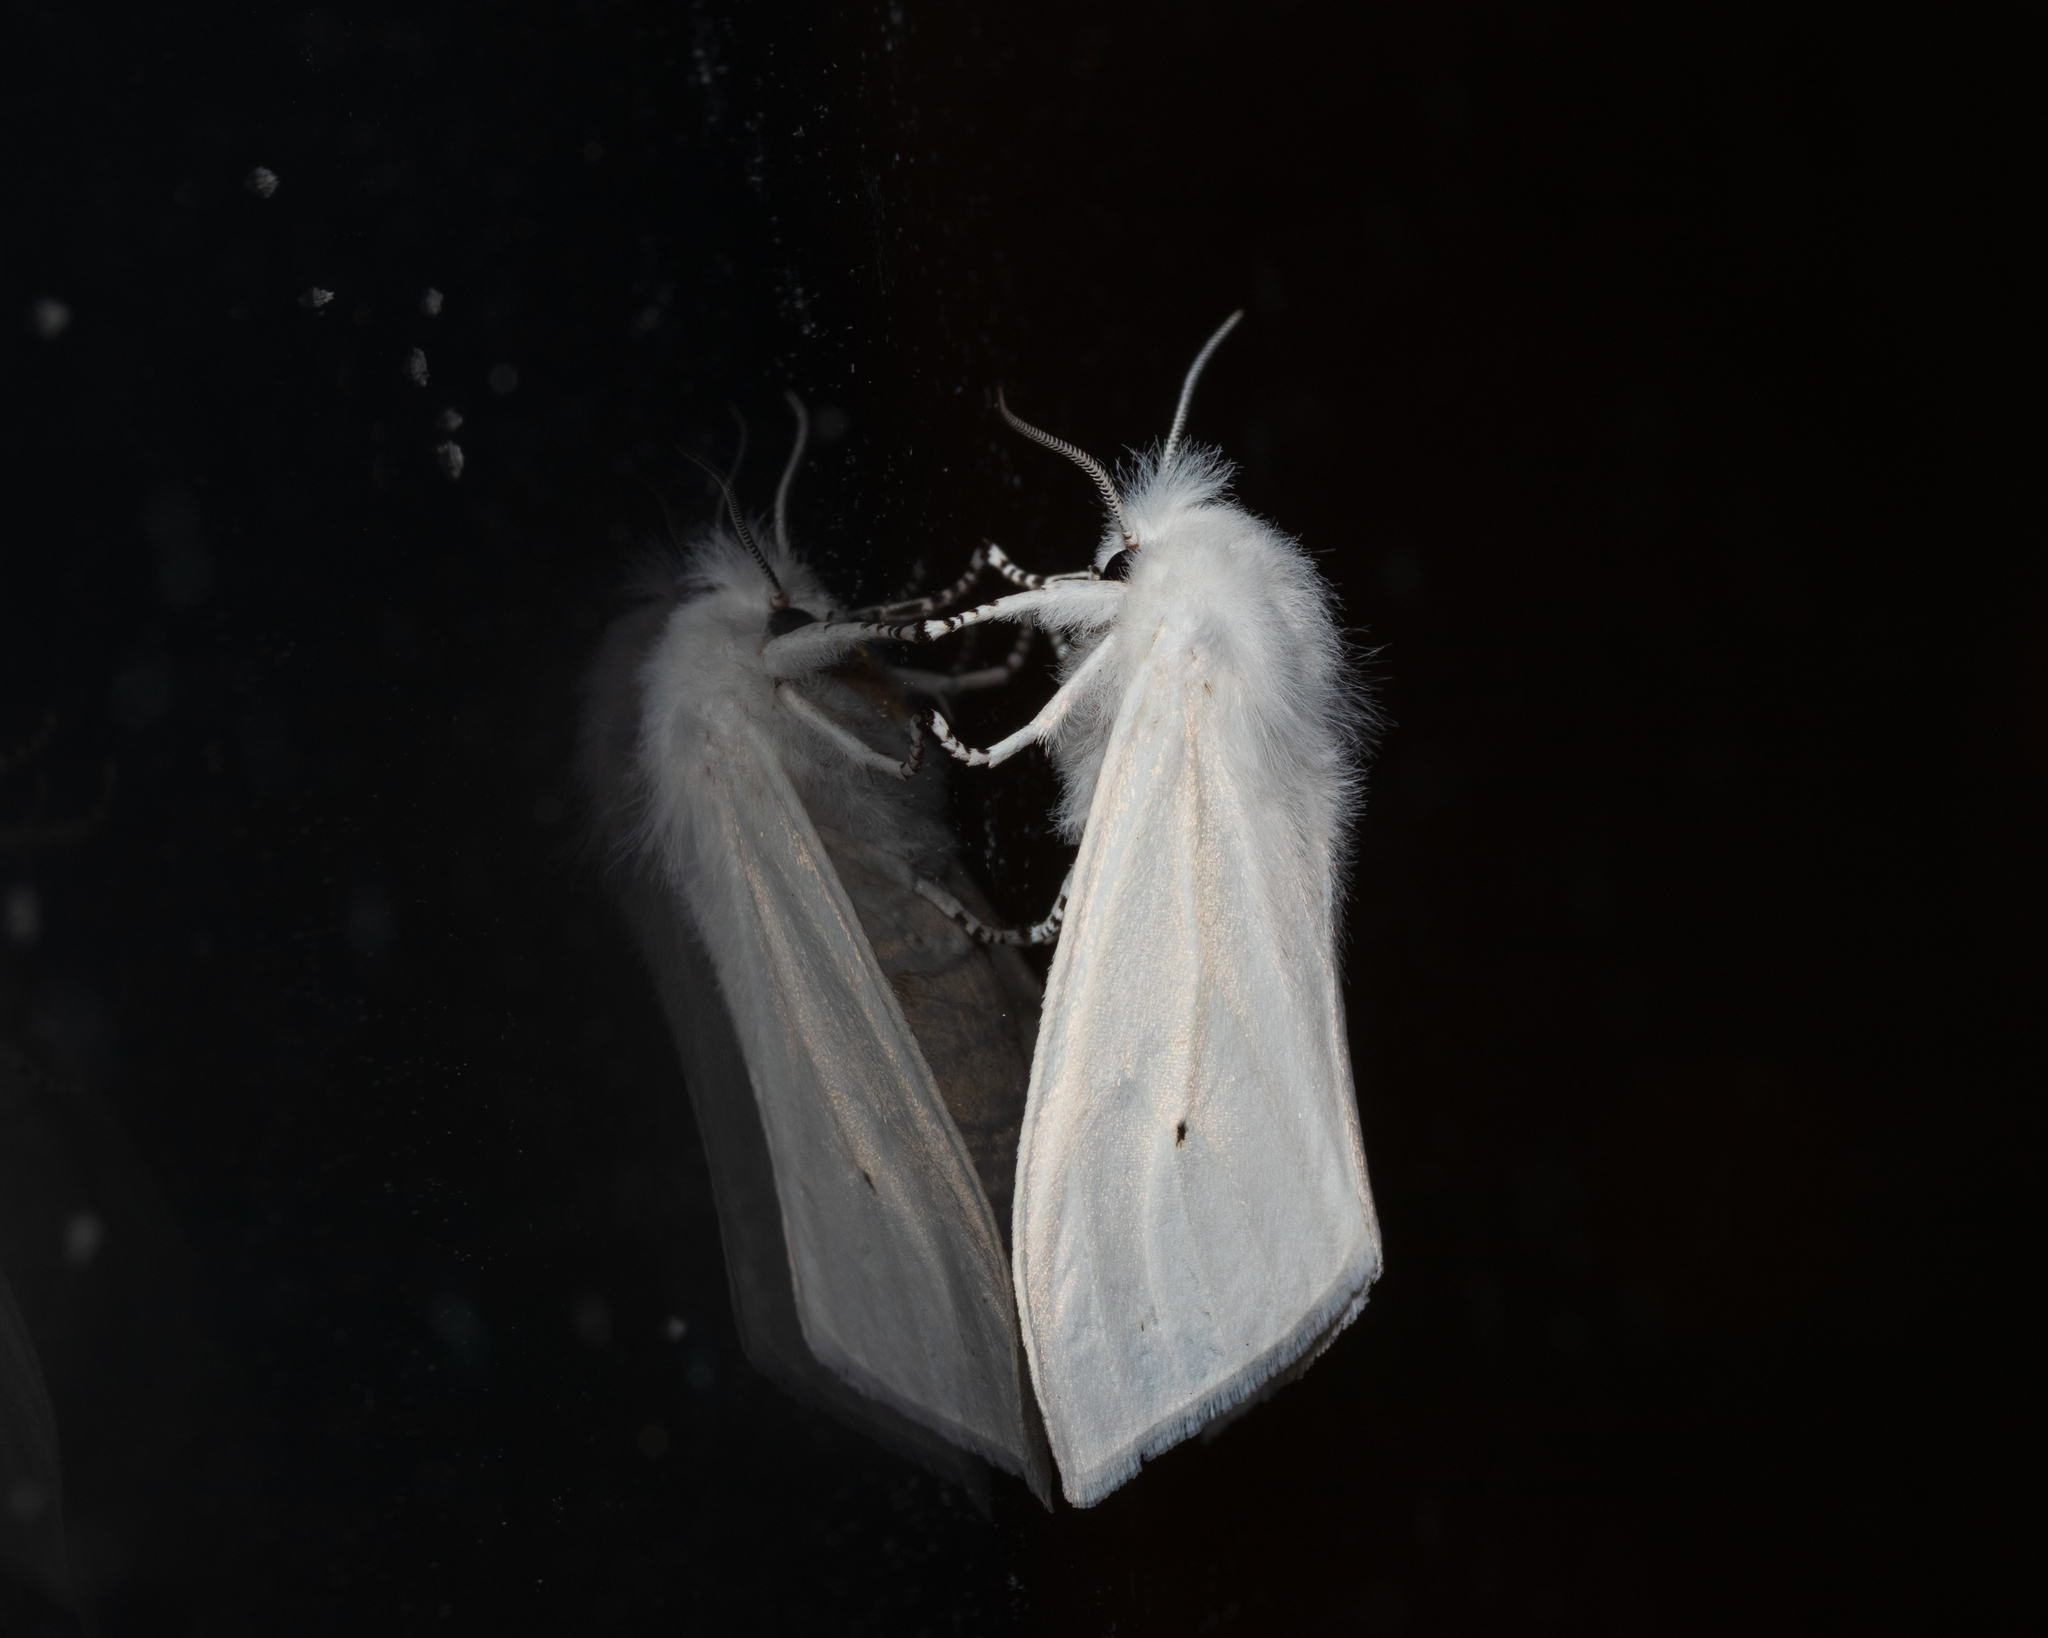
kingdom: Animalia
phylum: Arthropoda
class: Insecta
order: Lepidoptera
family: Erebidae
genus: Spilosoma
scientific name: Spilosoma virginica
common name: Virginia tiger moth
